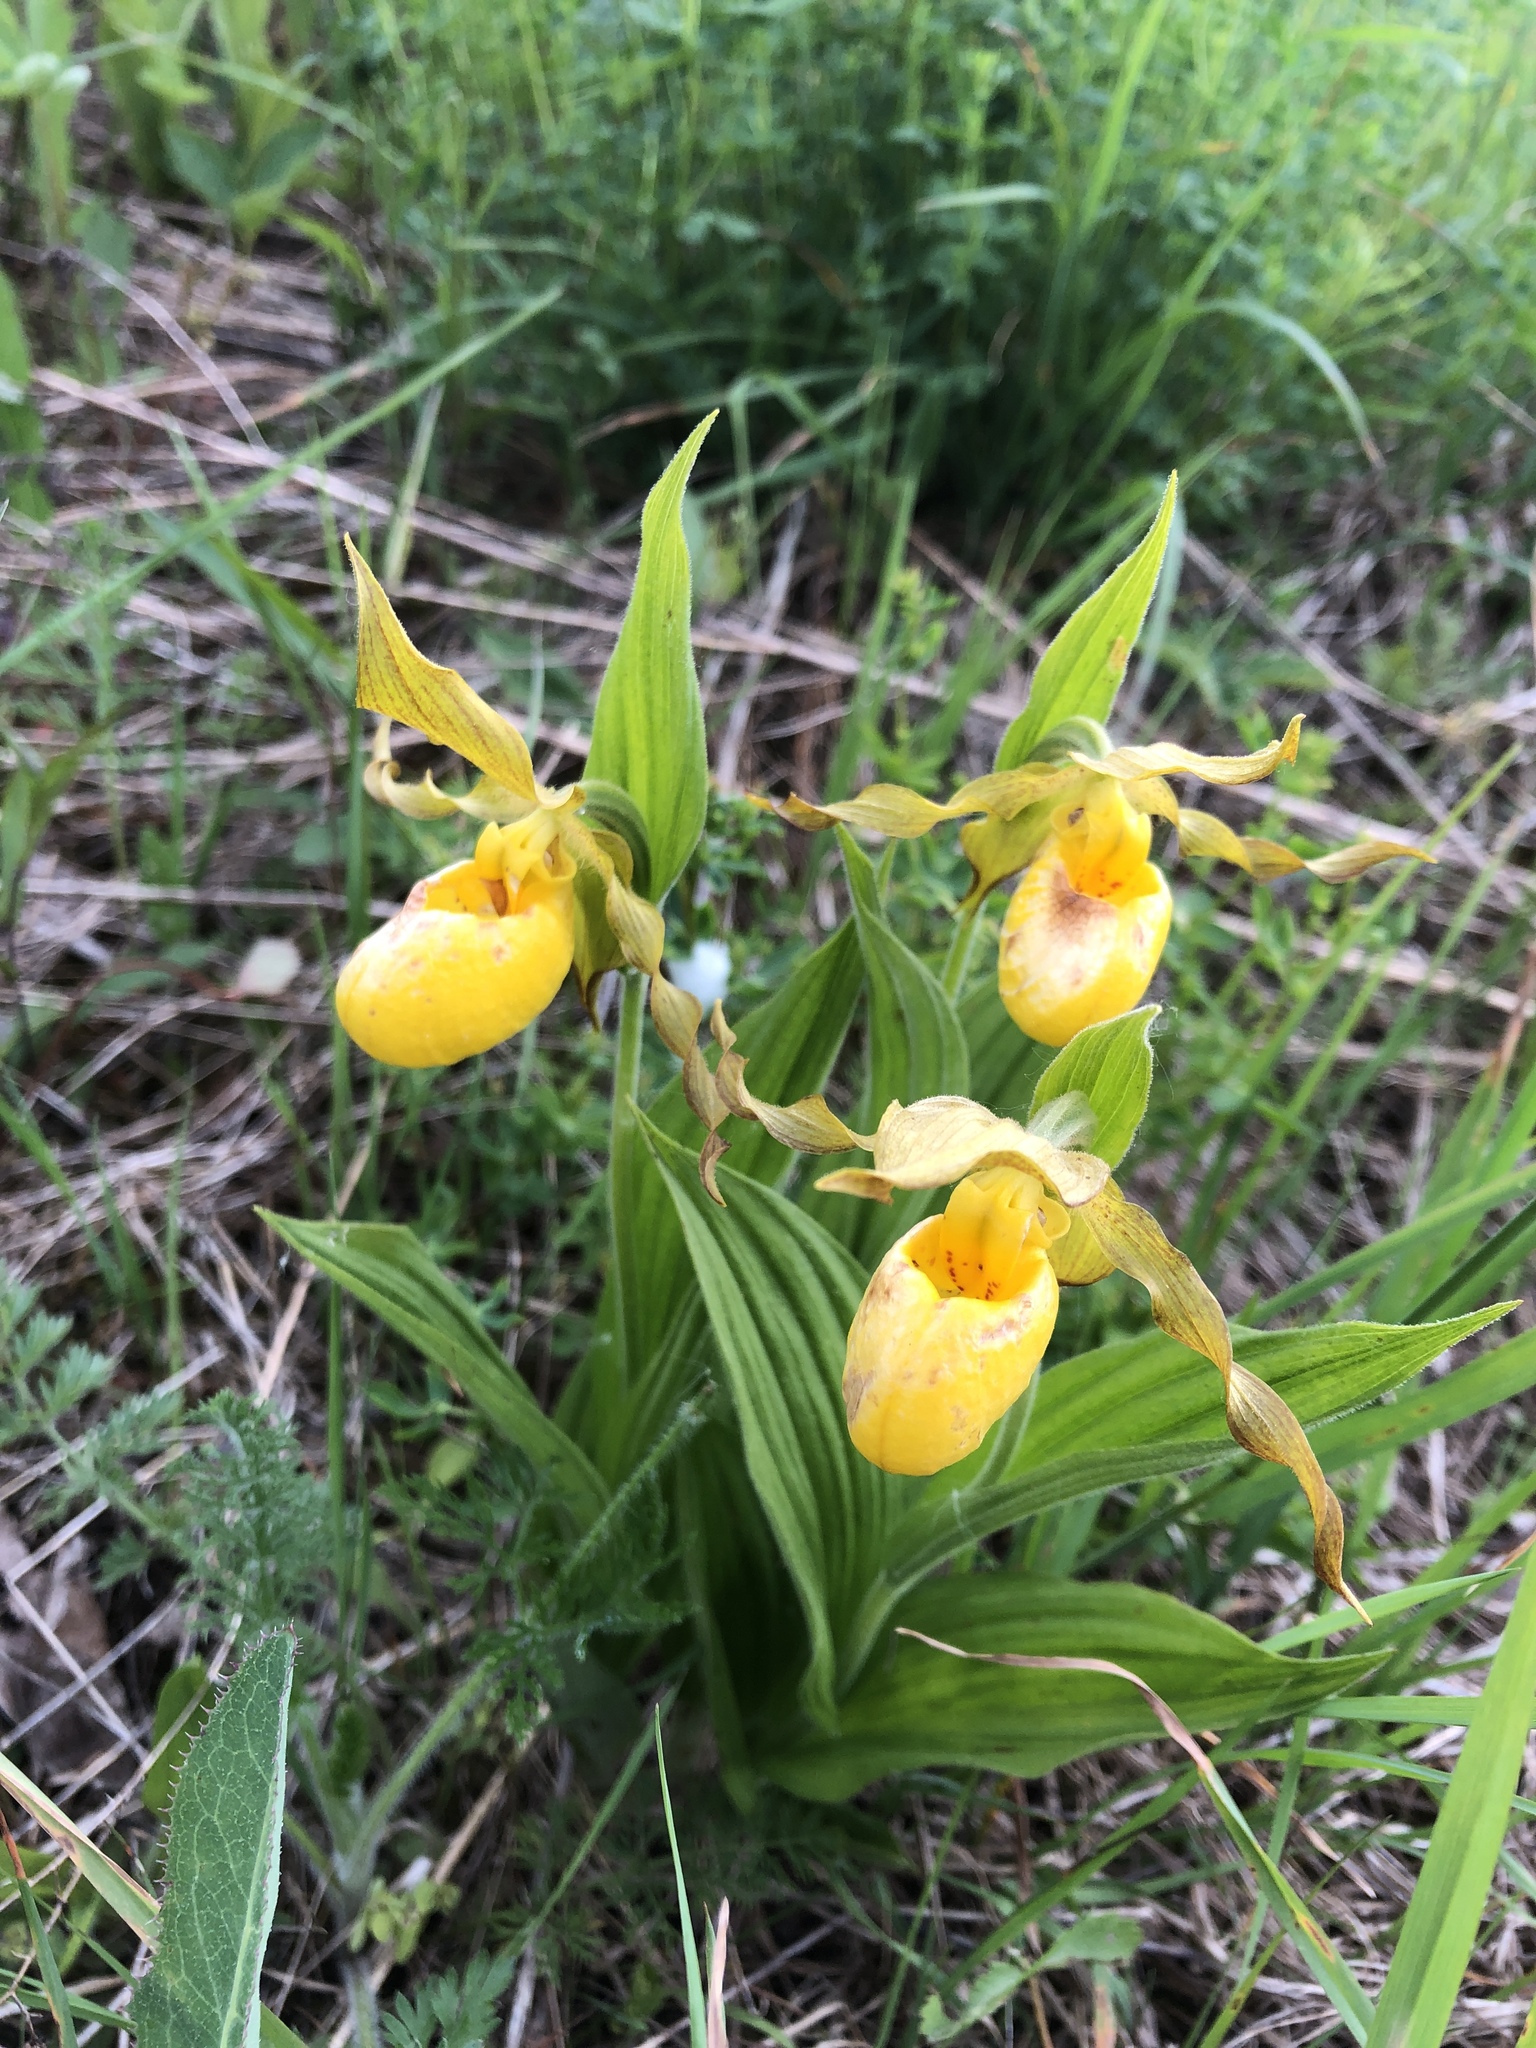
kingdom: Plantae
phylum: Tracheophyta
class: Liliopsida
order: Asparagales
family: Orchidaceae
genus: Cypripedium
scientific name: Cypripedium parviflorum
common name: American yellow lady's-slipper
